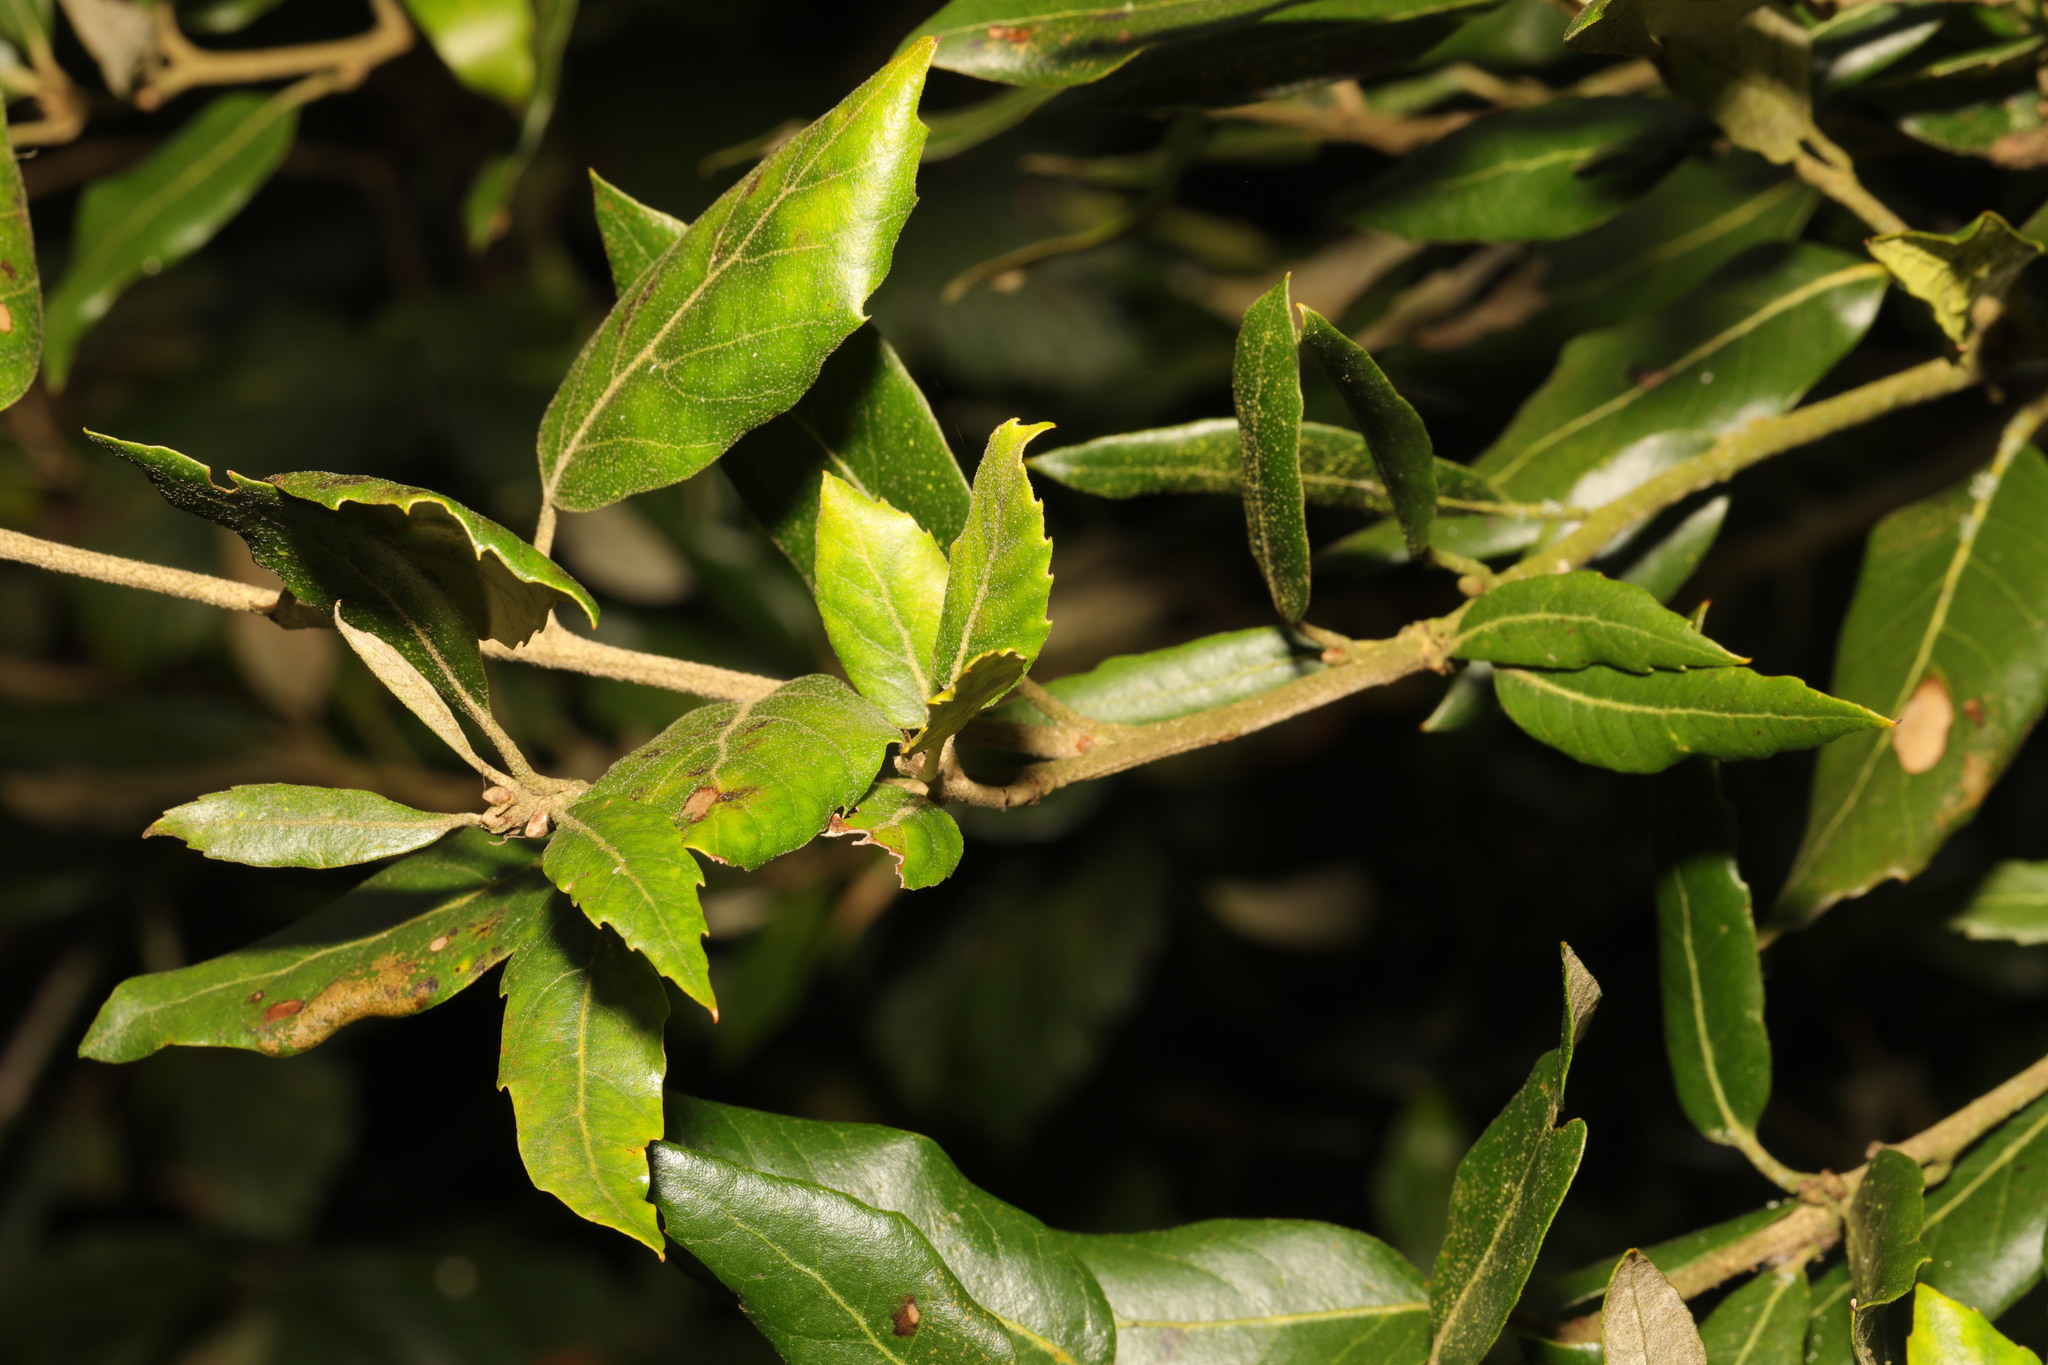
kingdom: Plantae
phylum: Tracheophyta
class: Magnoliopsida
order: Fagales
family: Fagaceae
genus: Quercus
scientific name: Quercus ilex
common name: Evergreen oak
